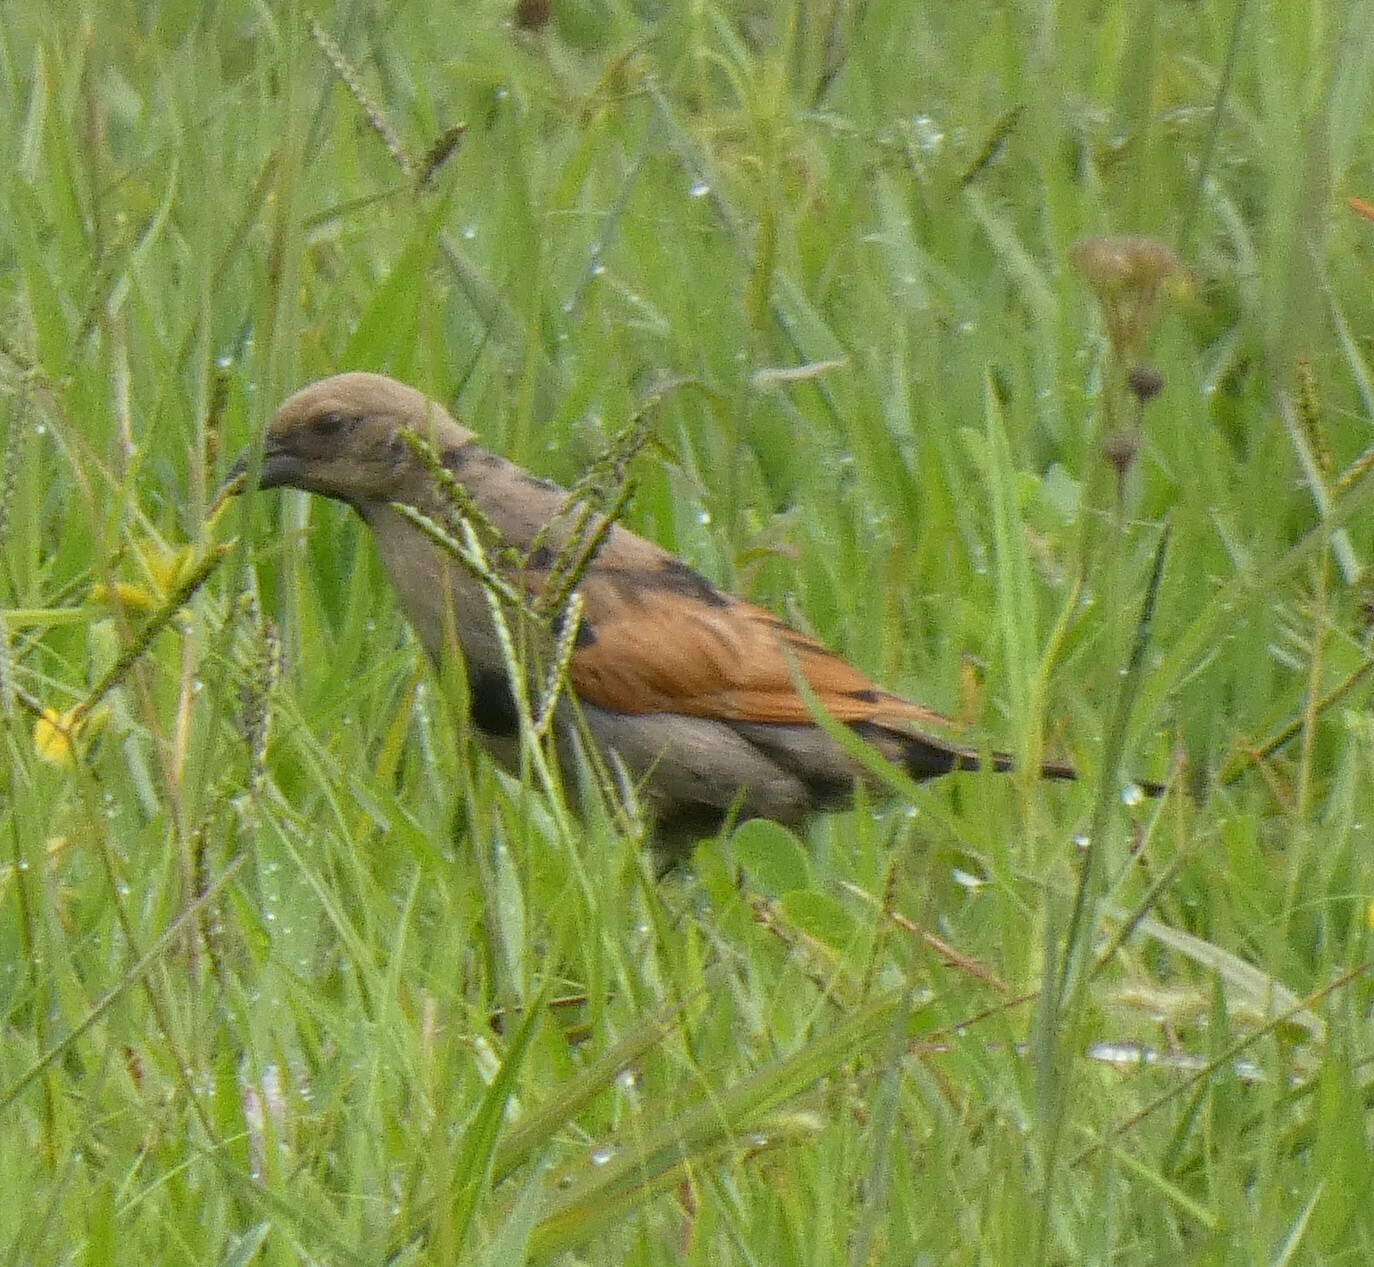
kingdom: Animalia
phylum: Chordata
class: Aves
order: Passeriformes
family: Icteridae
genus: Molothrus
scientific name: Molothrus rufoaxillaris
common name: Screaming cowbird
